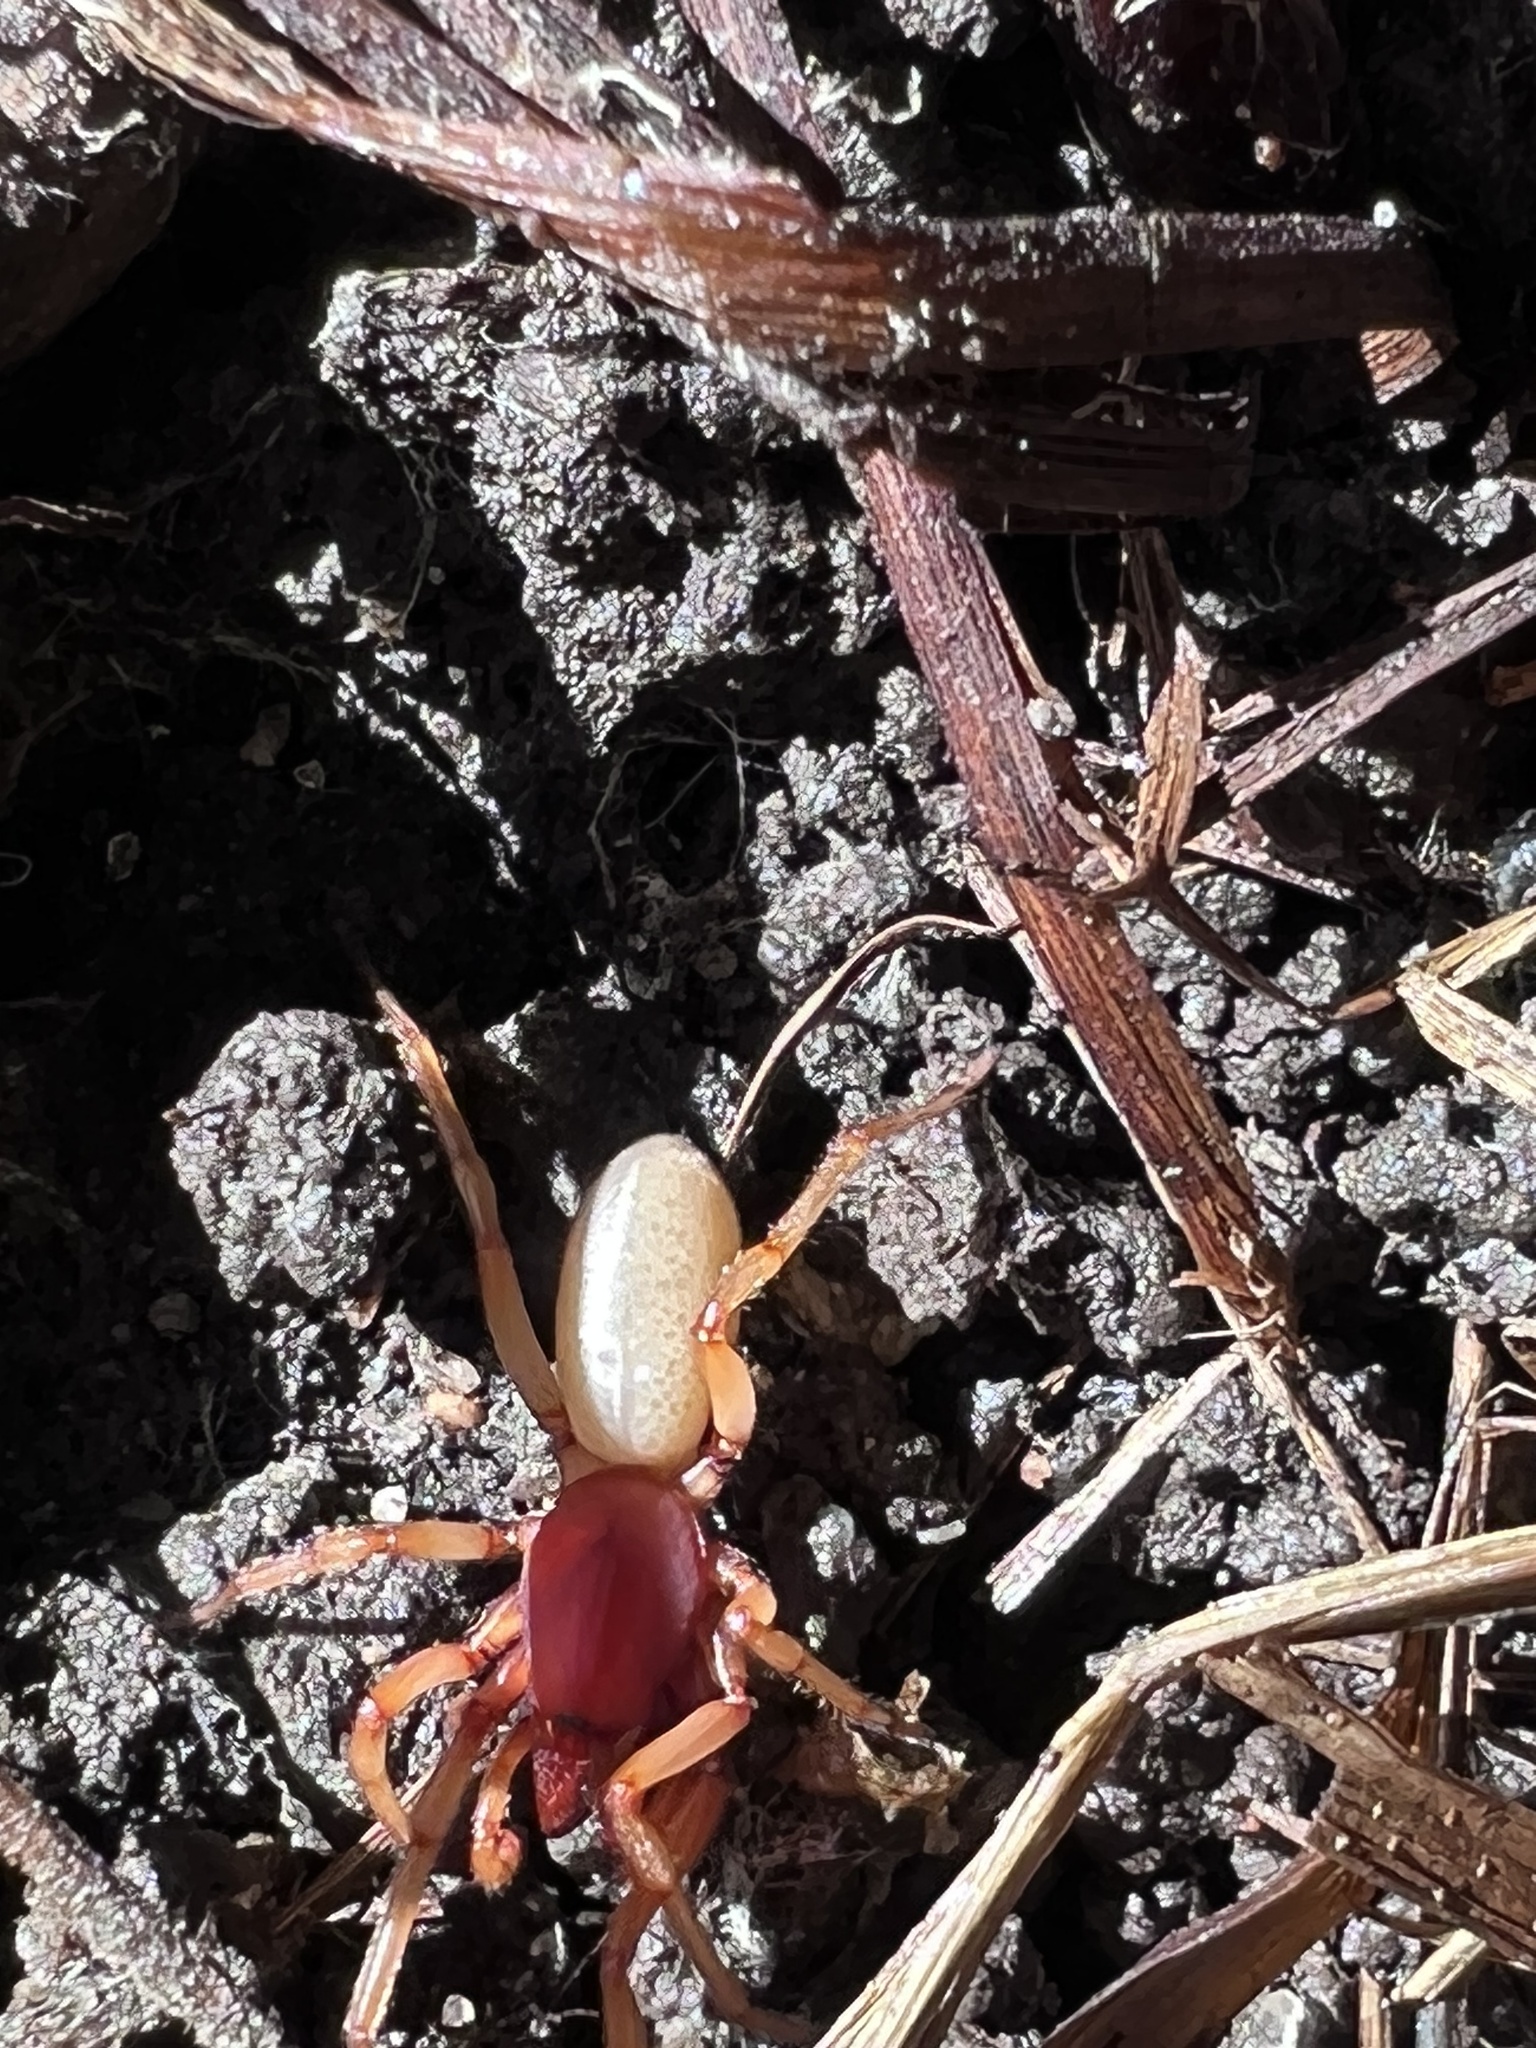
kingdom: Animalia
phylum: Arthropoda
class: Arachnida
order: Araneae
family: Dysderidae
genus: Dysdera
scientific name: Dysdera crocata
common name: Woodlouse spider
